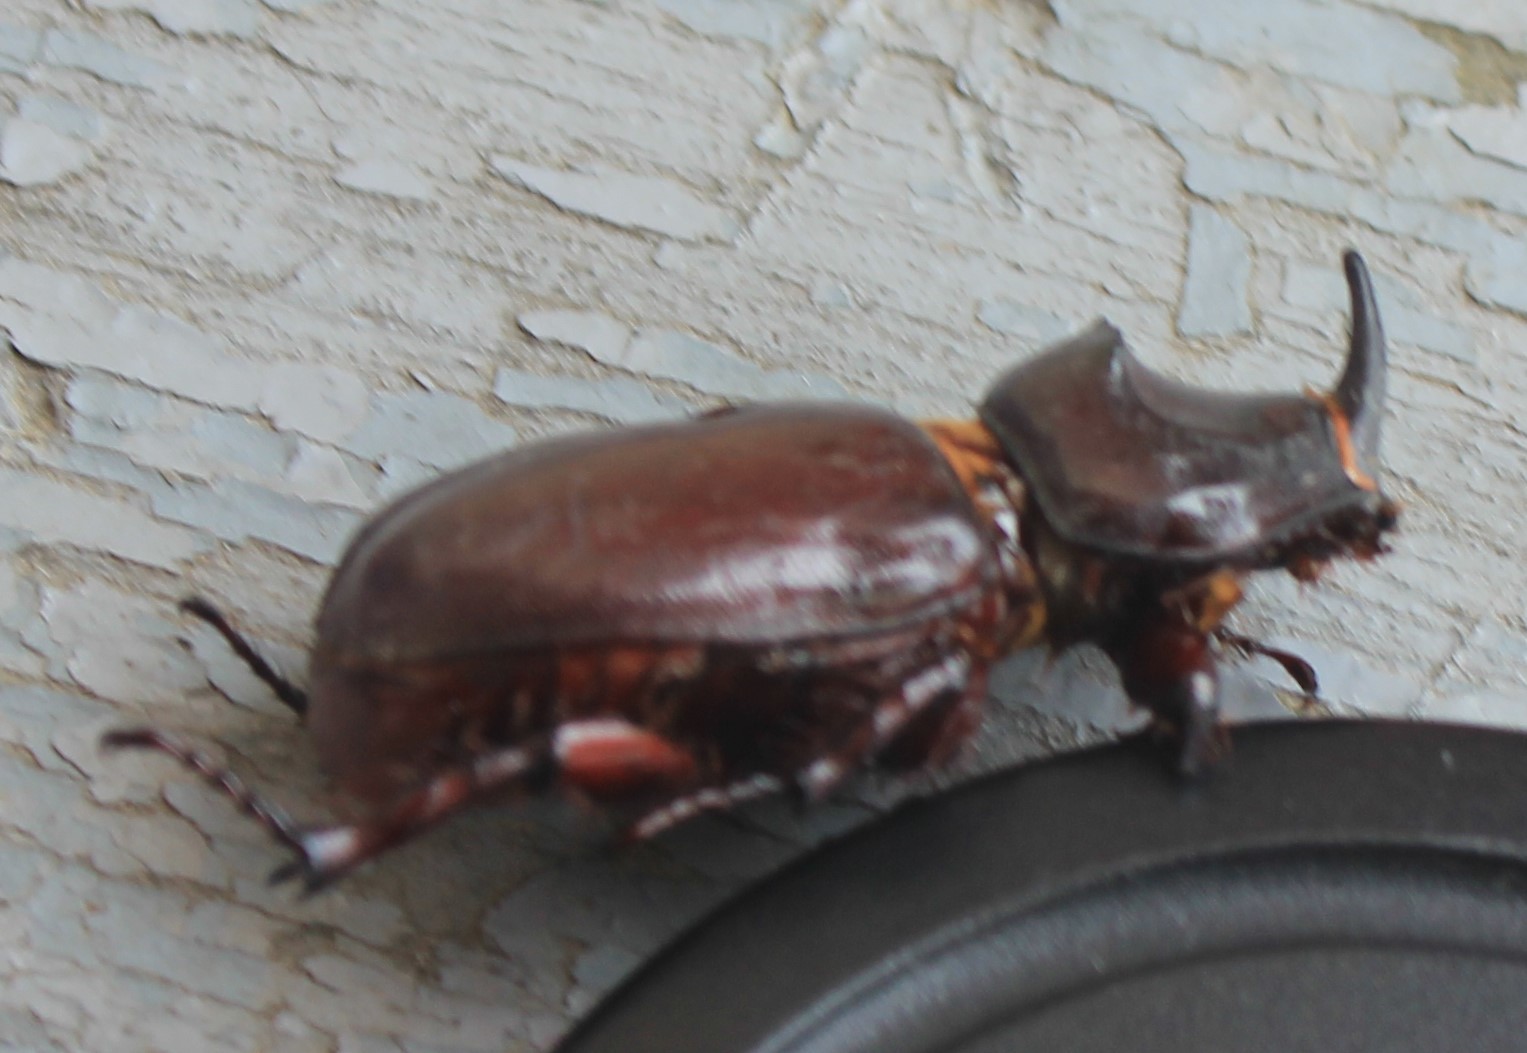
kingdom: Animalia
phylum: Arthropoda
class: Insecta
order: Coleoptera
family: Scarabaeidae
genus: Oryctes
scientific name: Oryctes nasicornis
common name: European rhinoceros beetle
